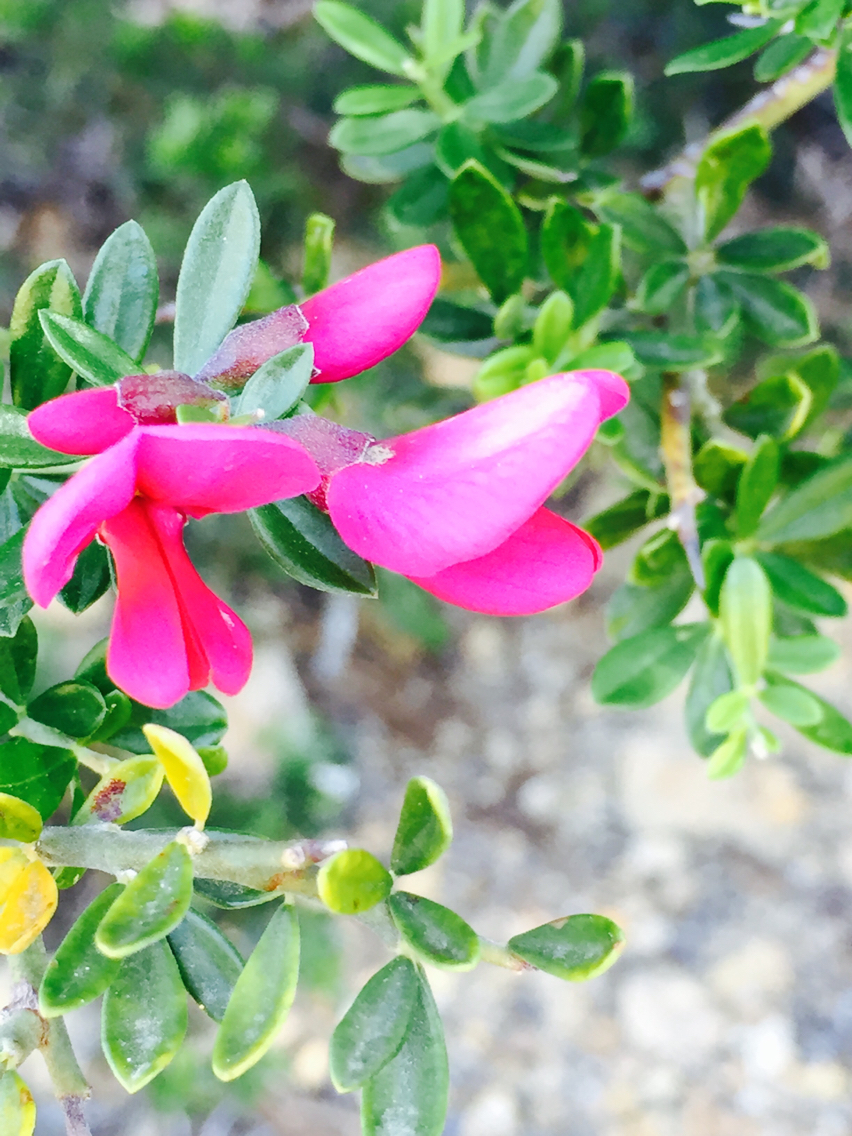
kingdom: Plantae
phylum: Tracheophyta
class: Magnoliopsida
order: Fabales
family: Fabaceae
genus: Pickeringia
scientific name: Pickeringia montana
